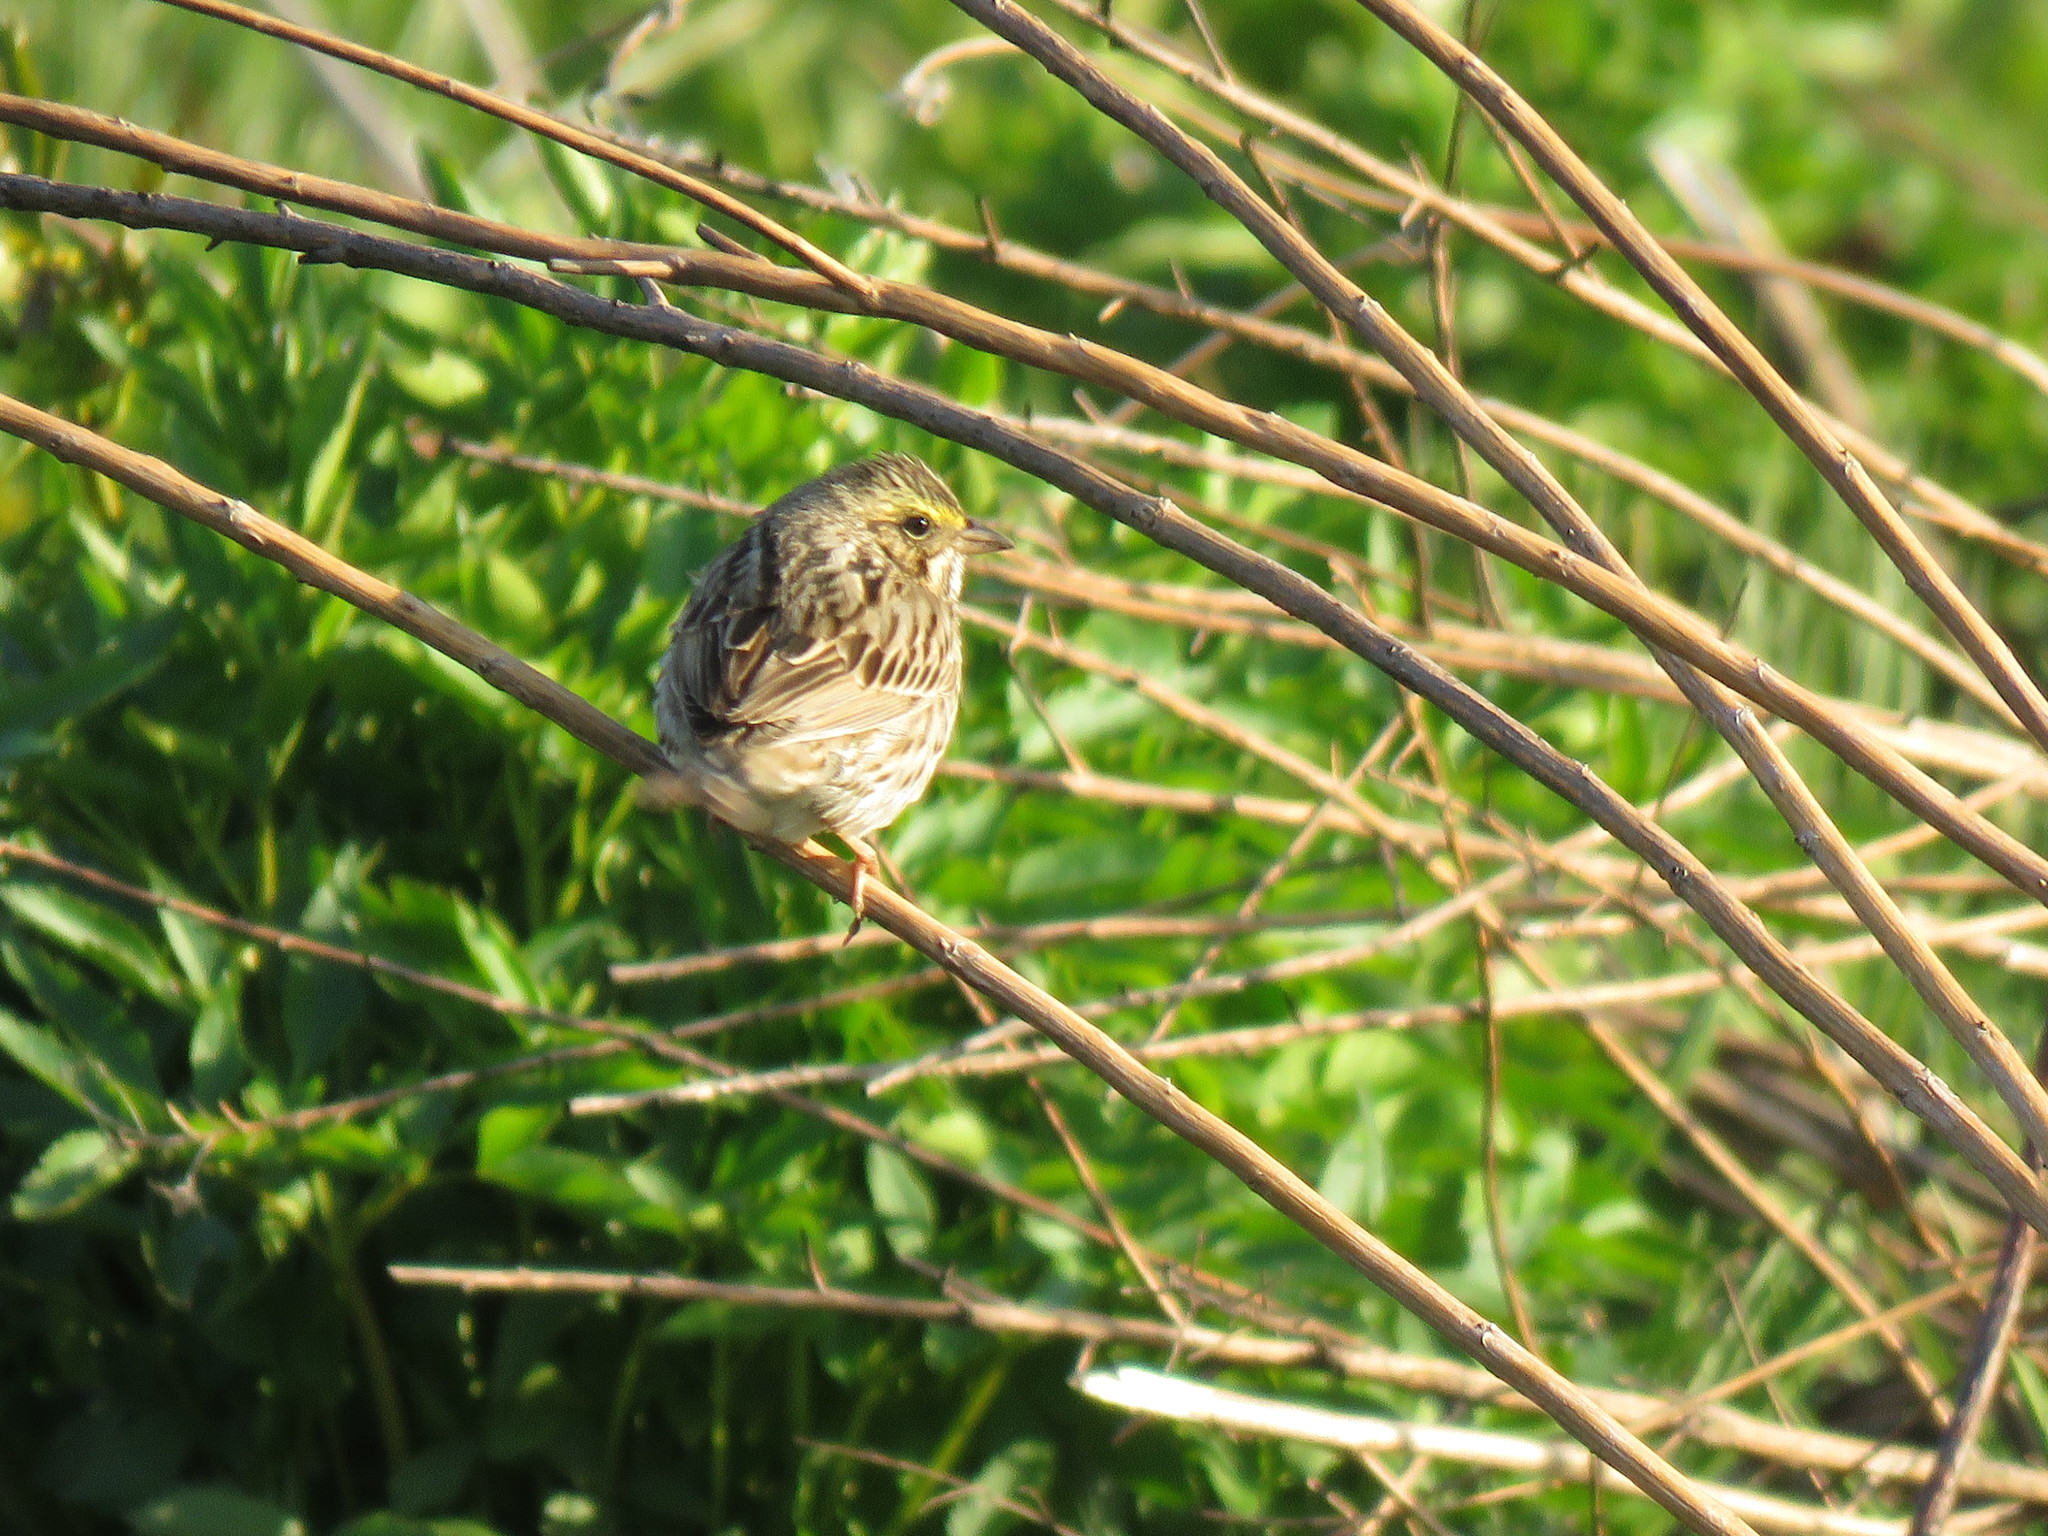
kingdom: Animalia
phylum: Chordata
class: Aves
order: Passeriformes
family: Passerellidae
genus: Passerculus
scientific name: Passerculus sandwichensis
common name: Savannah sparrow
